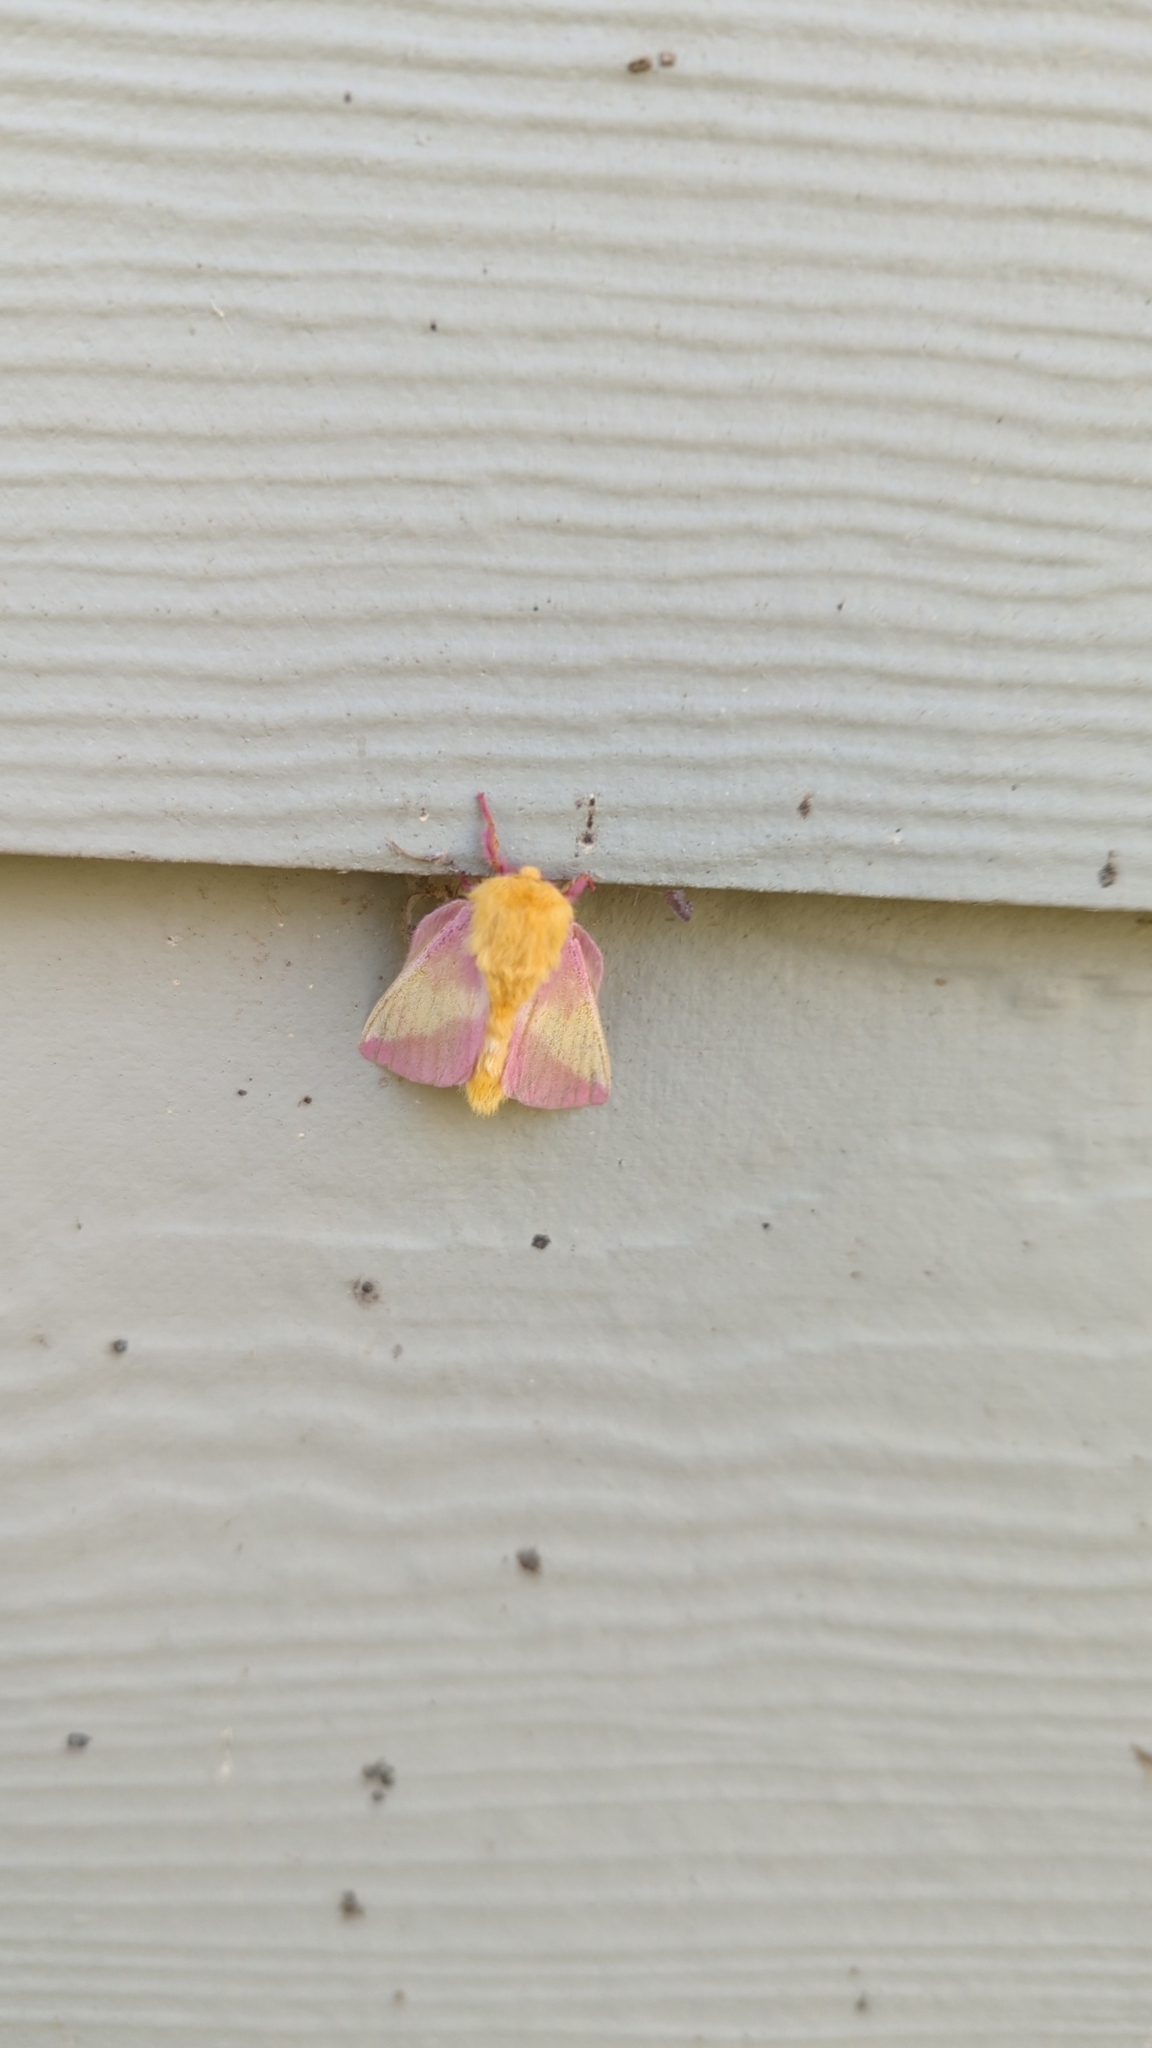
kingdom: Animalia
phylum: Arthropoda
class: Insecta
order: Lepidoptera
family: Saturniidae
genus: Dryocampa
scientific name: Dryocampa rubicunda
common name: Rosy maple moth
